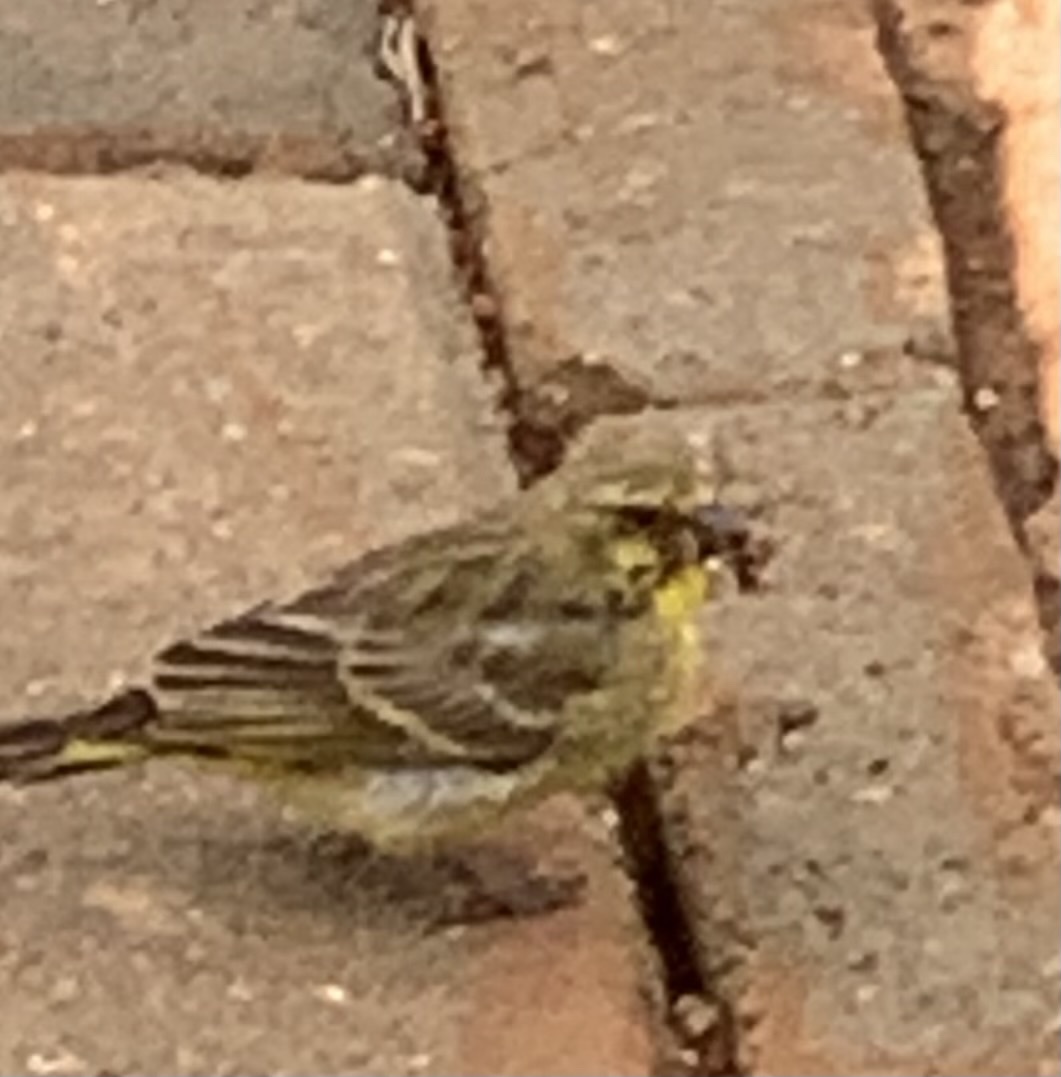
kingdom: Animalia
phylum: Chordata
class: Aves
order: Passeriformes
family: Fringillidae
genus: Crithagra
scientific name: Crithagra mozambica
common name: Yellow-fronted canary
